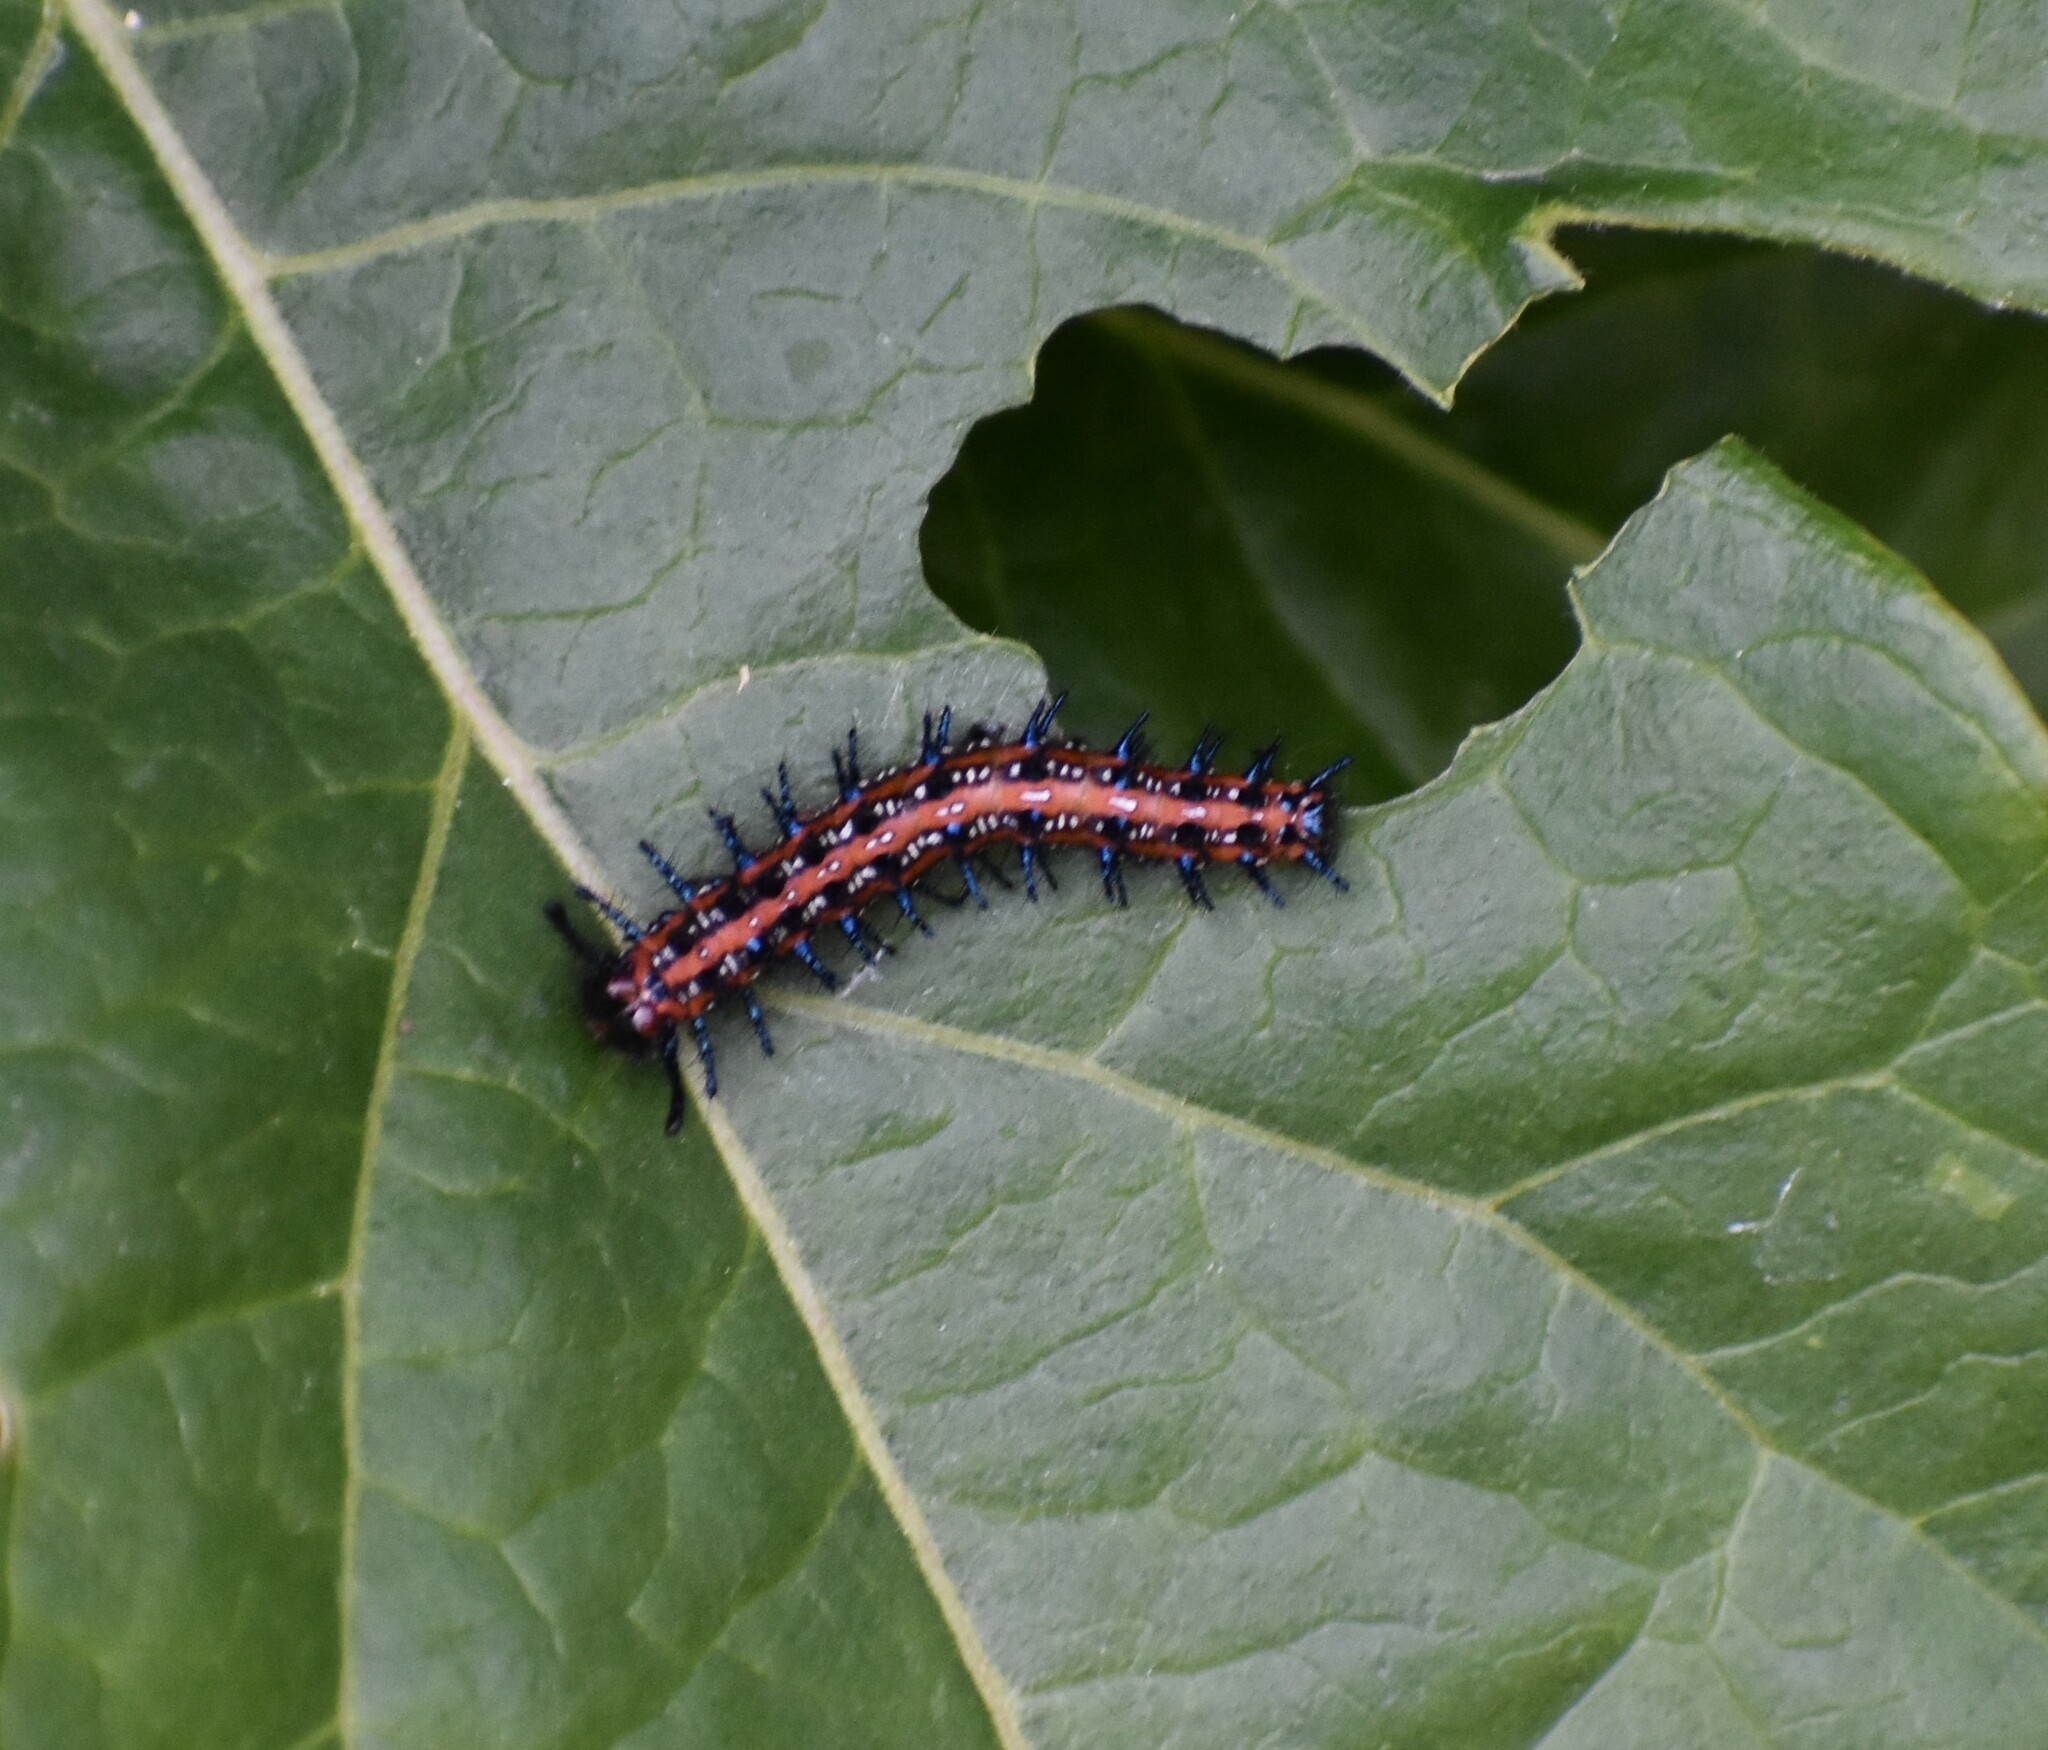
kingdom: Animalia
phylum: Arthropoda
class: Insecta
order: Lepidoptera
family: Nymphalidae
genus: Euptoieta
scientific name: Euptoieta claudia
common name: Variegated fritillary
